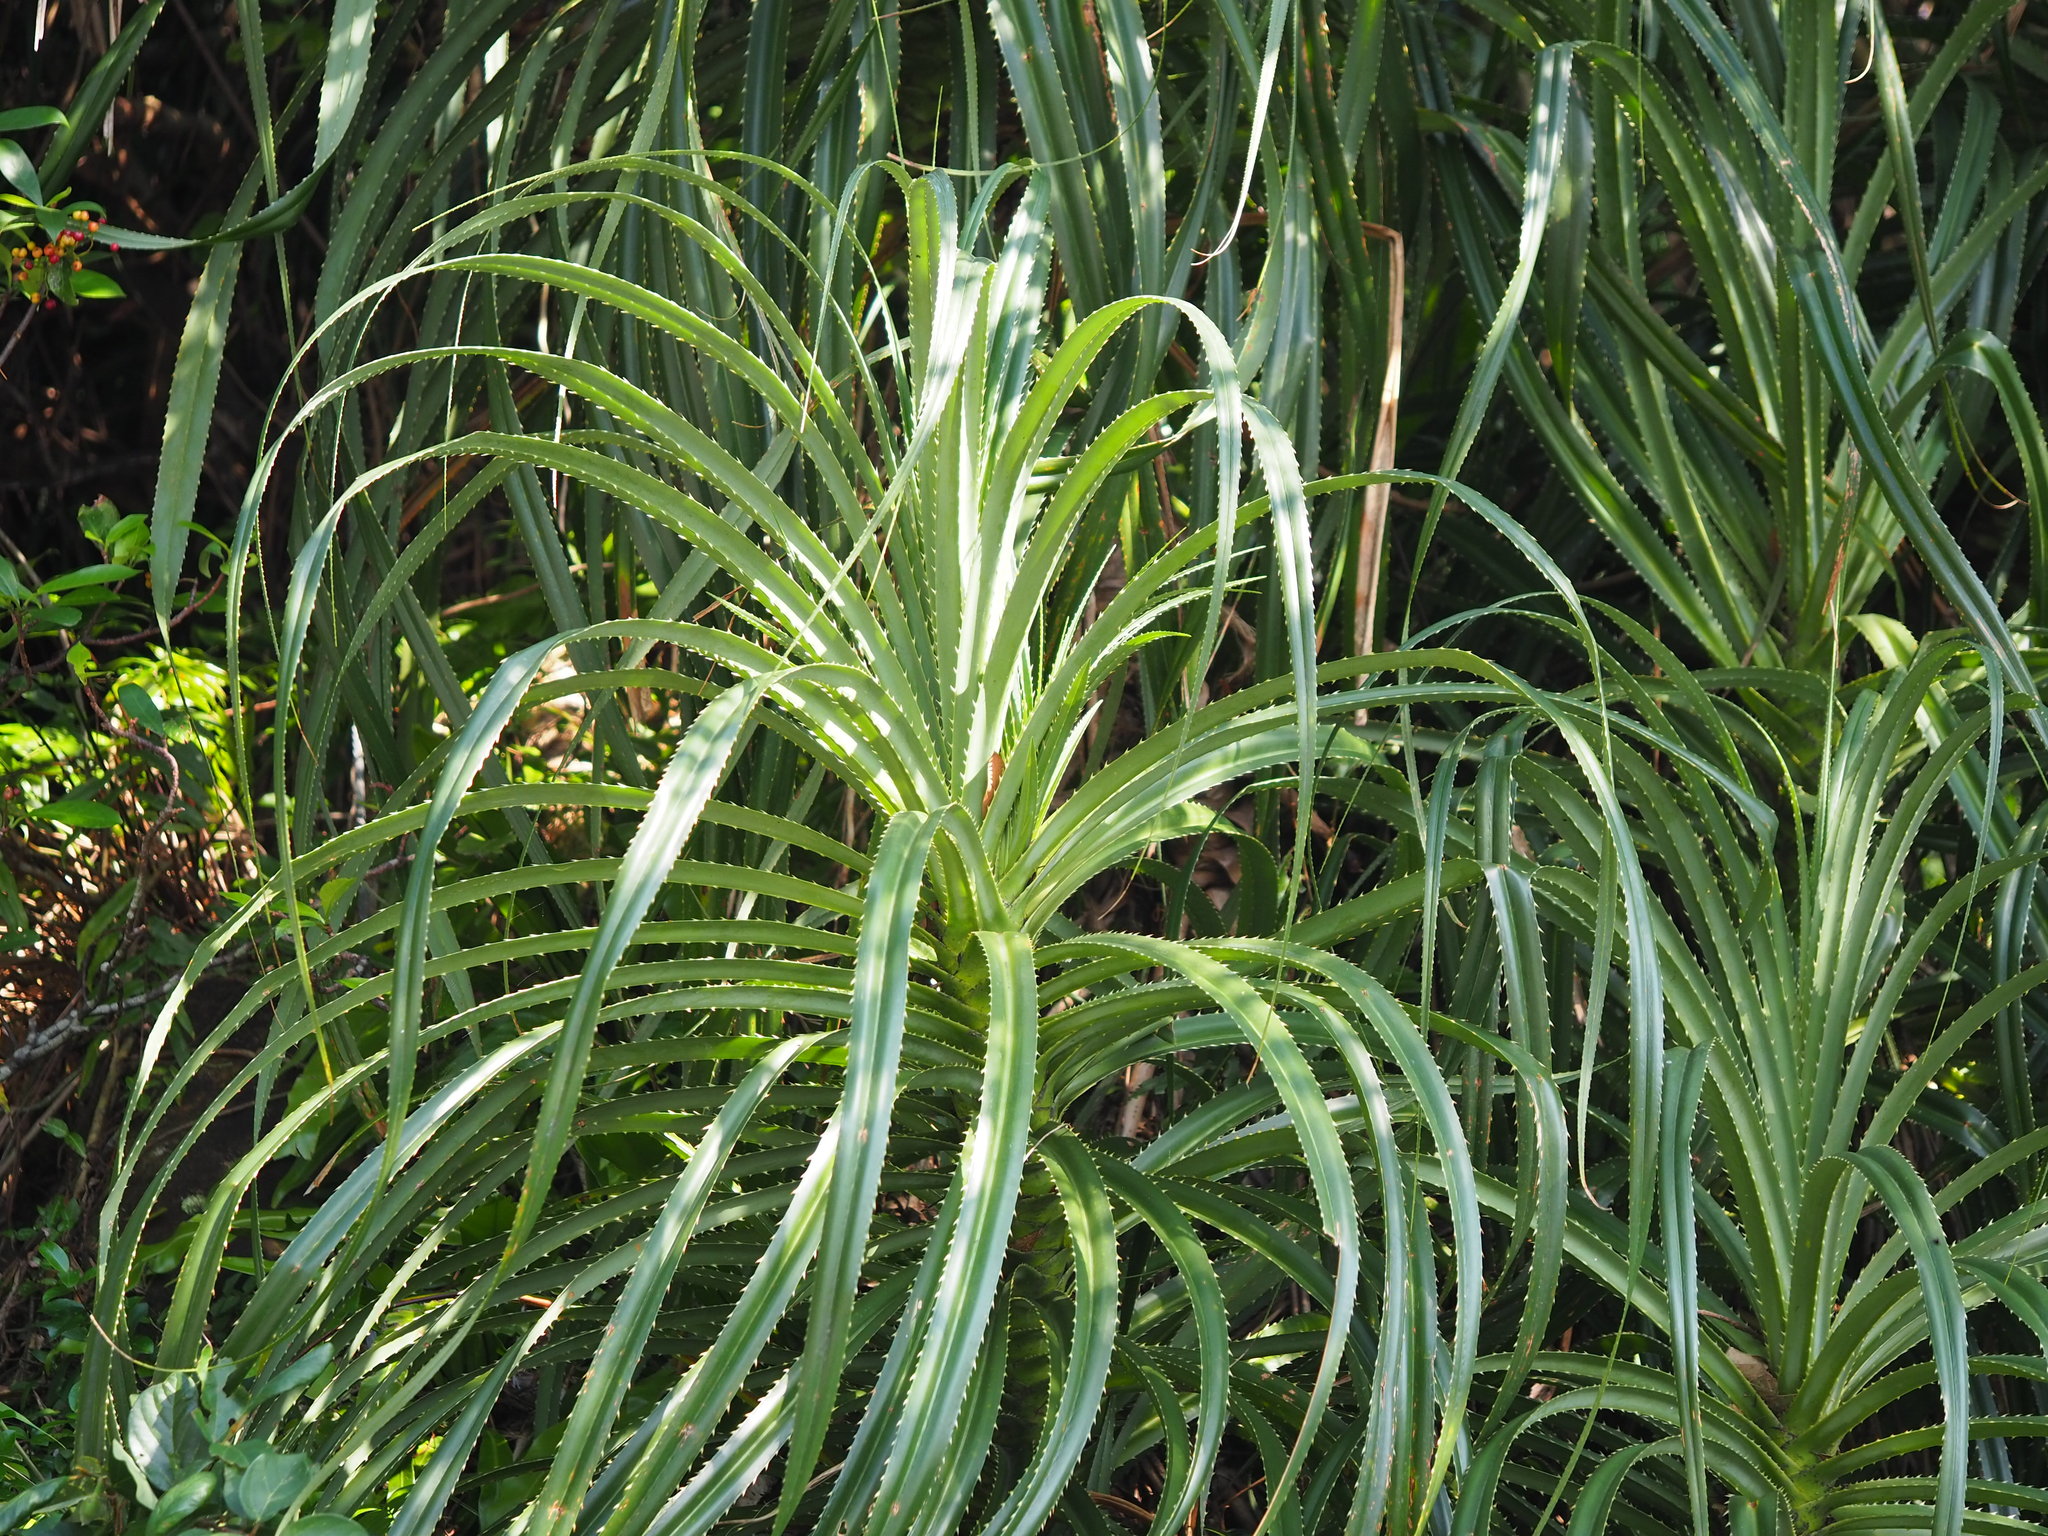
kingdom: Plantae
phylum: Tracheophyta
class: Liliopsida
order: Pandanales
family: Pandanaceae
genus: Pandanus
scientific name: Pandanus odorifer
